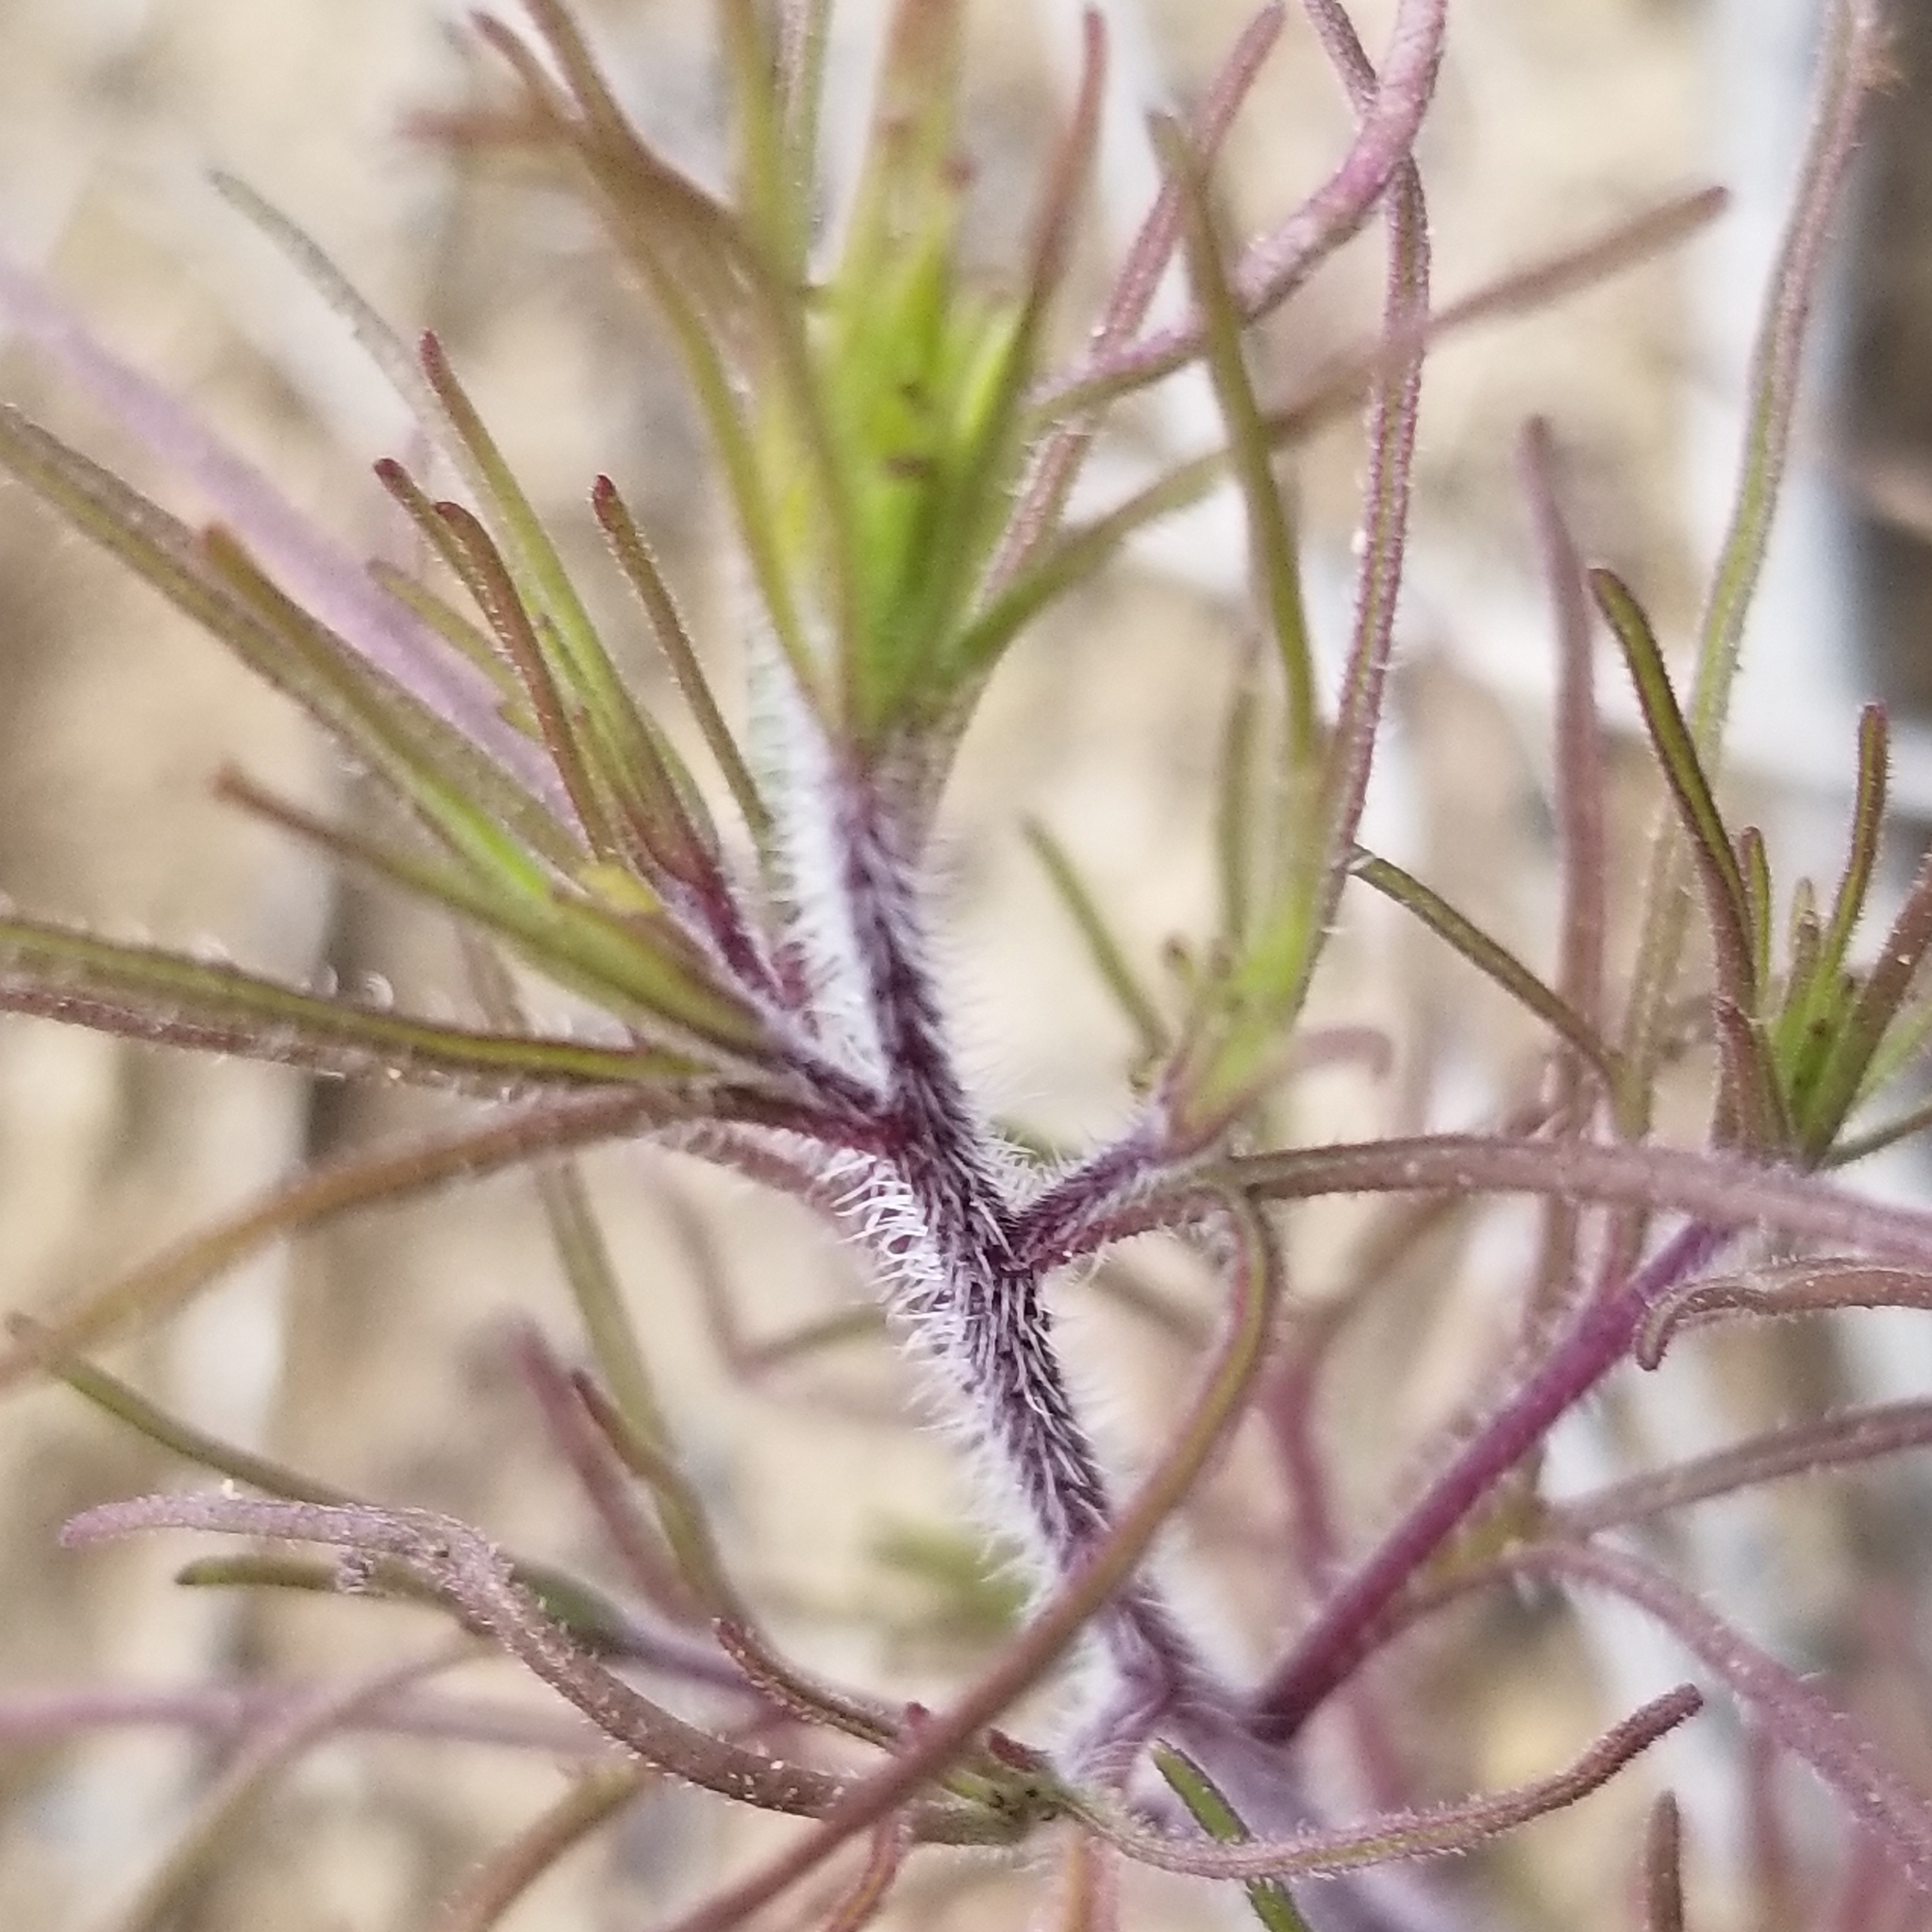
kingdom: Plantae
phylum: Tracheophyta
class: Magnoliopsida
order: Lamiales
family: Orobanchaceae
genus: Cordylanthus
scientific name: Cordylanthus rigidus
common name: Stiff-branch bird's-beak
